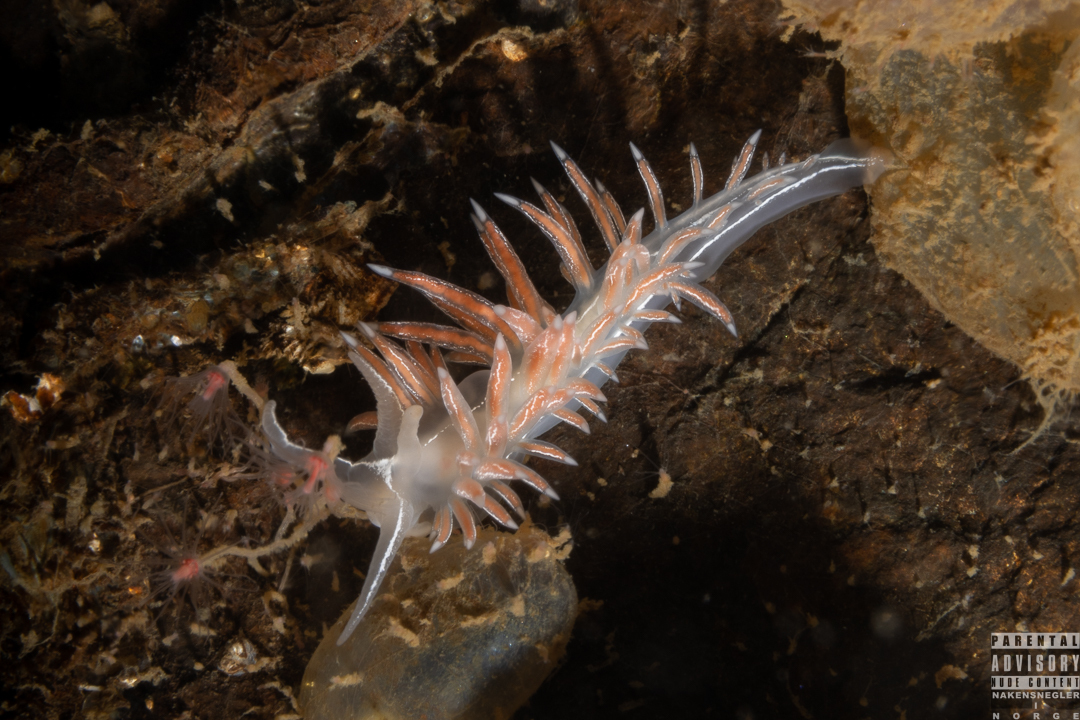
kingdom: Animalia
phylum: Mollusca
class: Gastropoda
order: Nudibranchia
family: Coryphellidae
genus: Coryphella
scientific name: Coryphella chriskaugei
